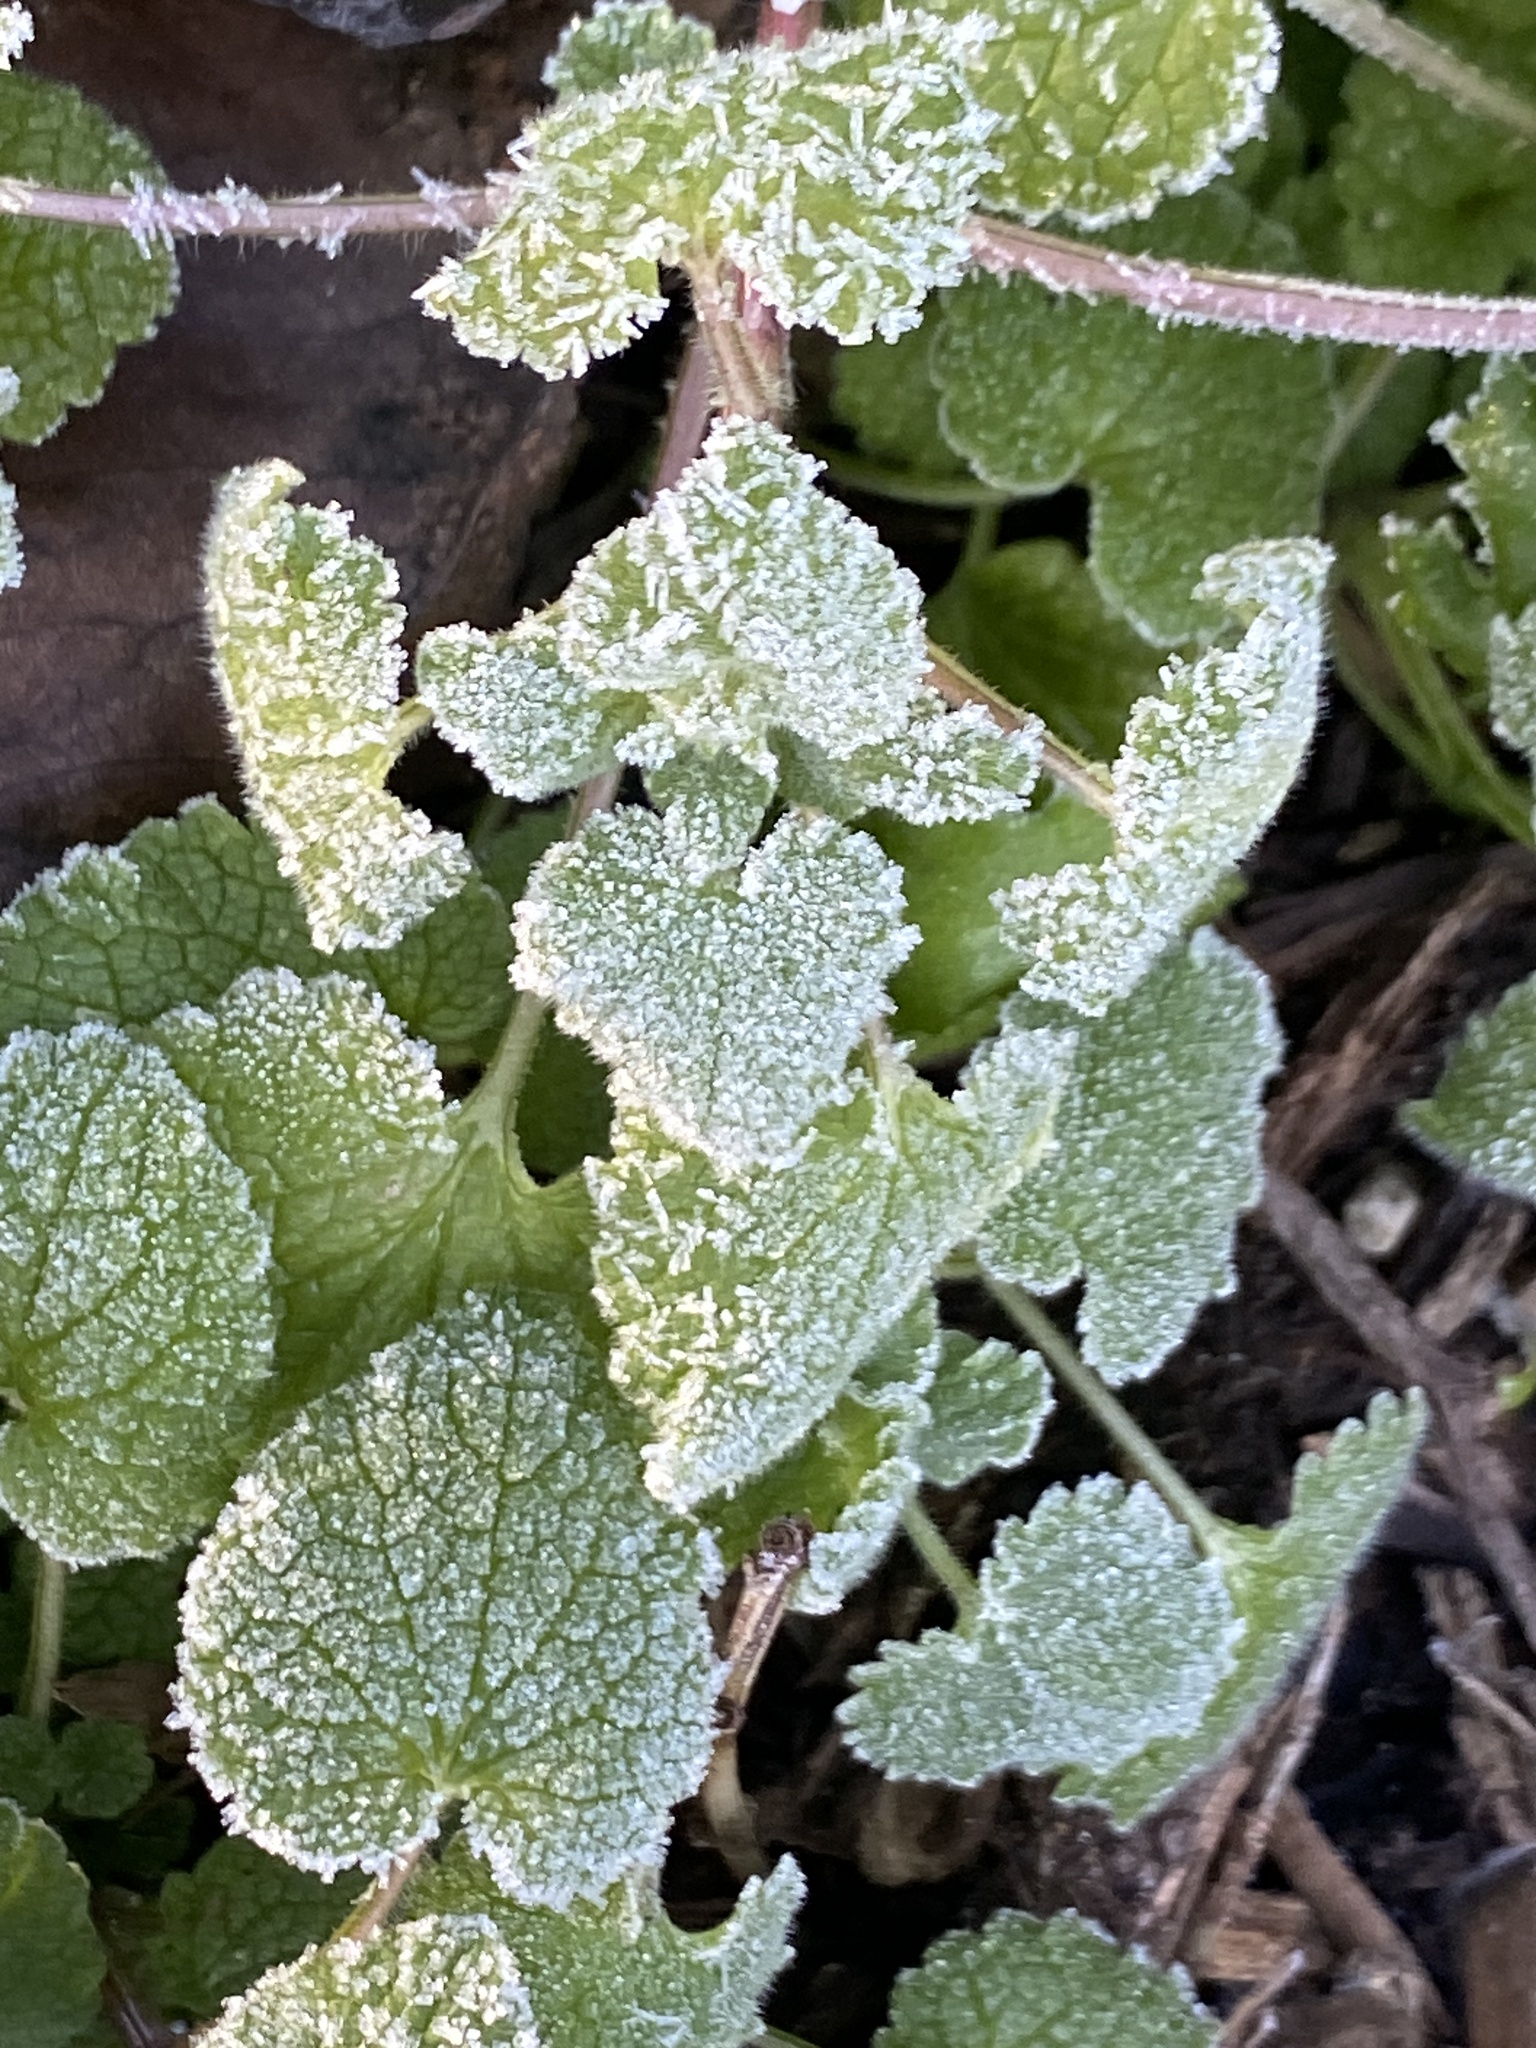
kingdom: Plantae
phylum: Tracheophyta
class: Magnoliopsida
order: Lamiales
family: Lamiaceae
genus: Lamium
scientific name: Lamium purpureum
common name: Red dead-nettle
